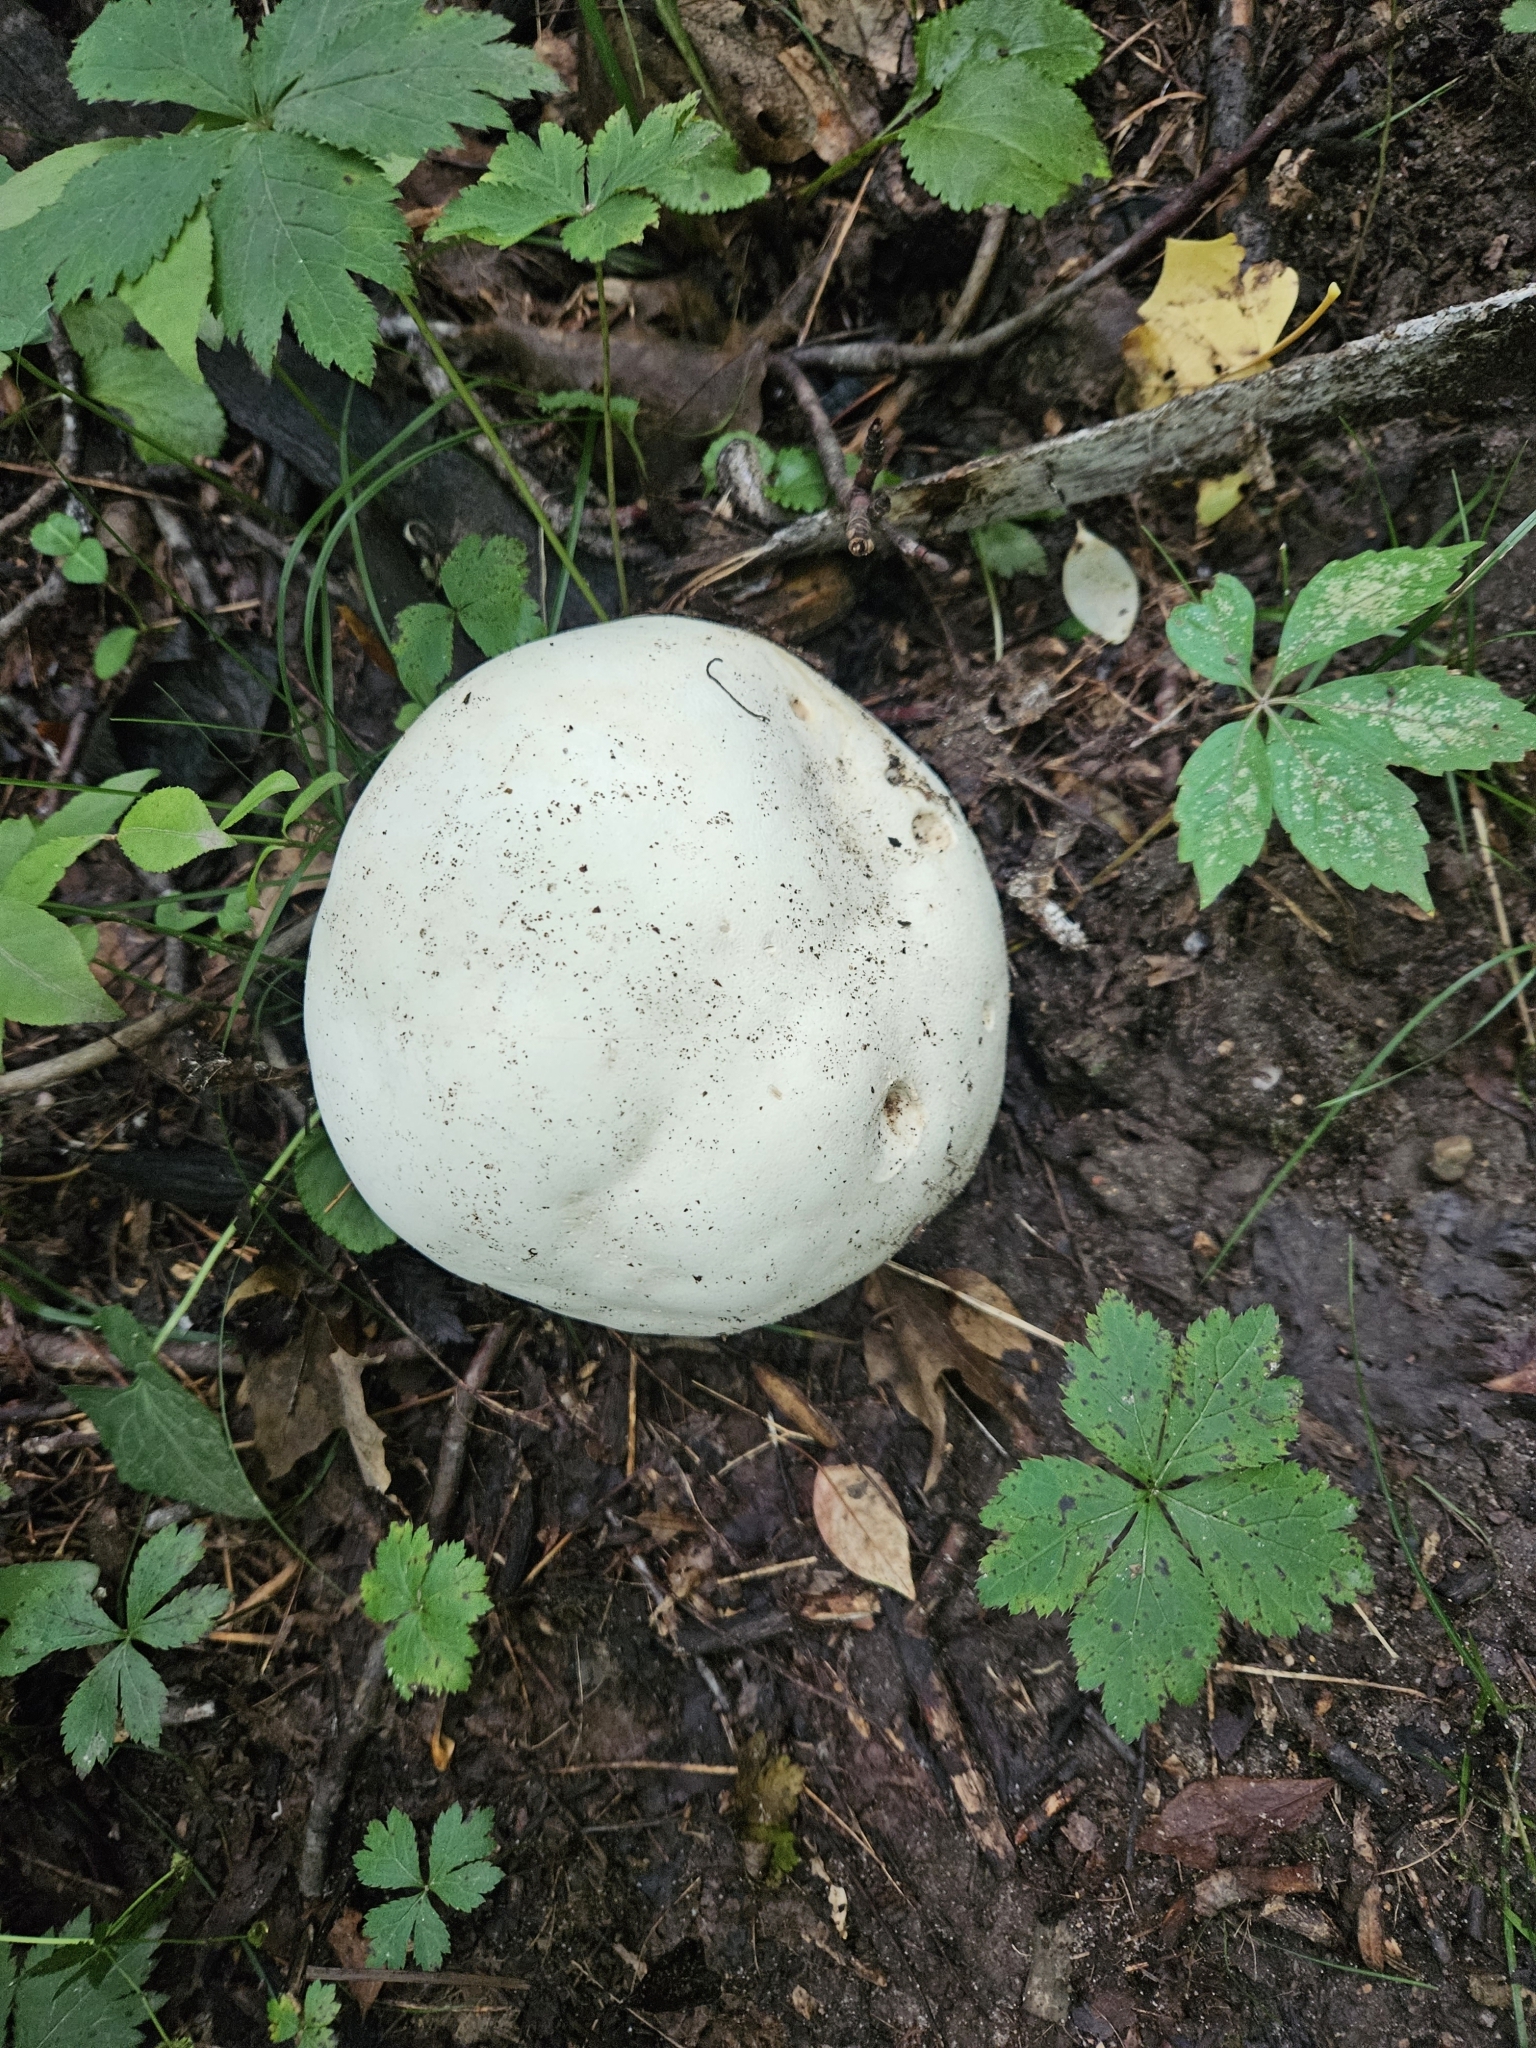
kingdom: Fungi
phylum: Basidiomycota
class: Agaricomycetes
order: Agaricales
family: Lycoperdaceae
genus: Calvatia
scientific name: Calvatia gigantea
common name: Giant puffball
